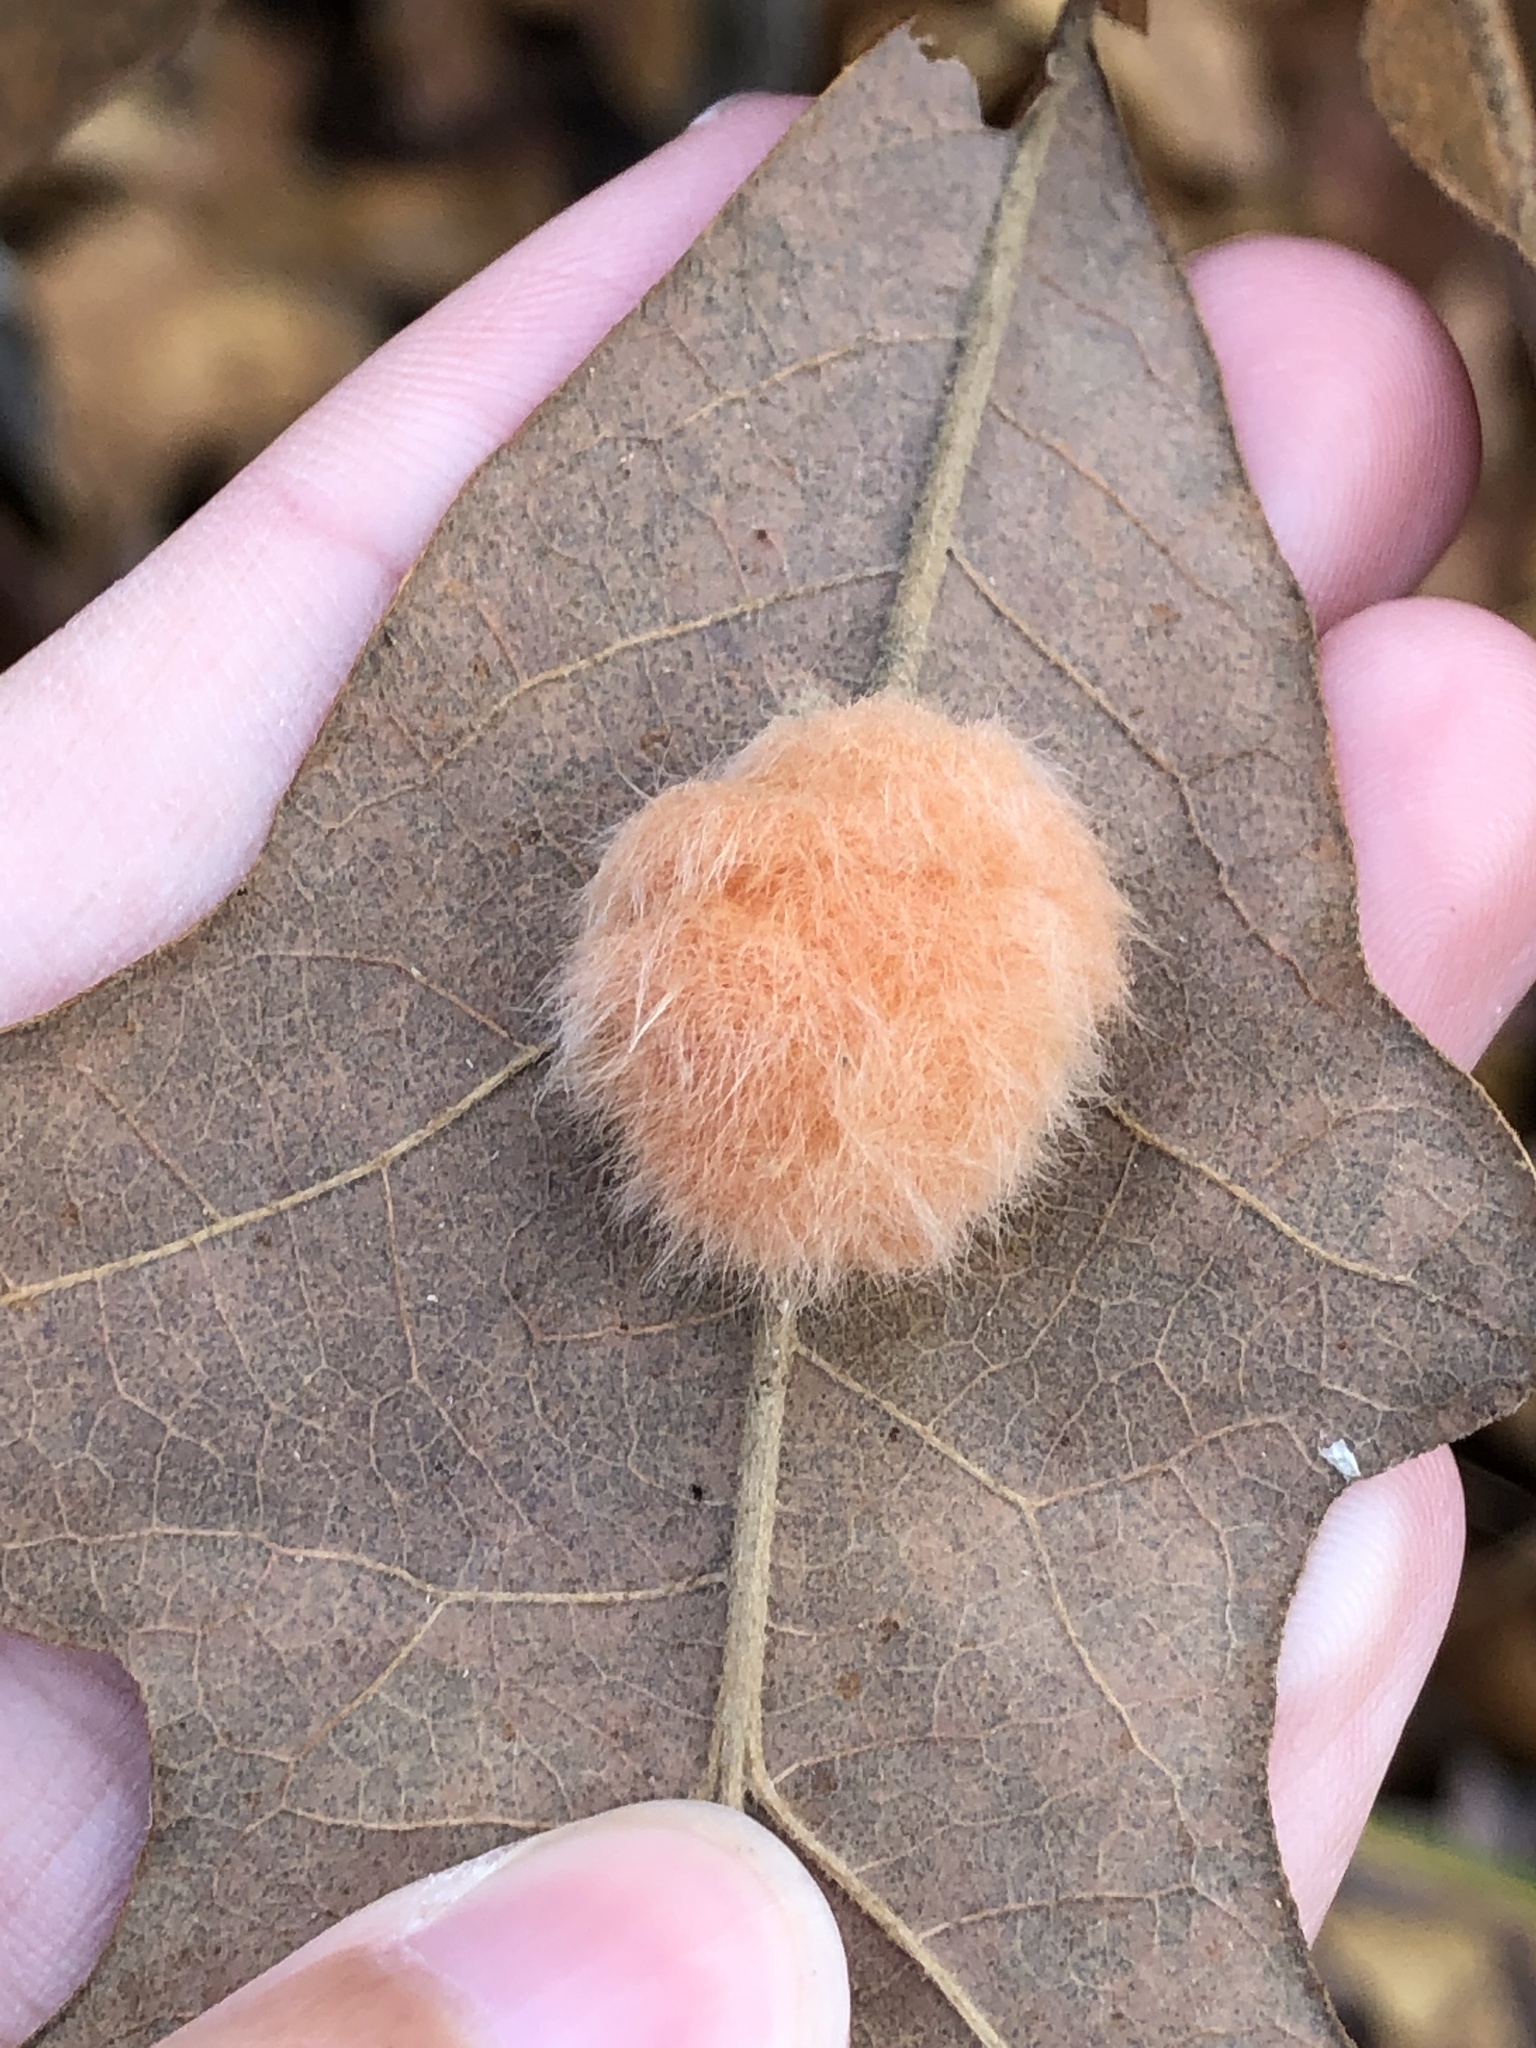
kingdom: Animalia
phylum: Arthropoda
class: Insecta
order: Hymenoptera
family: Cynipidae
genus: Andricus
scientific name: Andricus Druon pattoni
